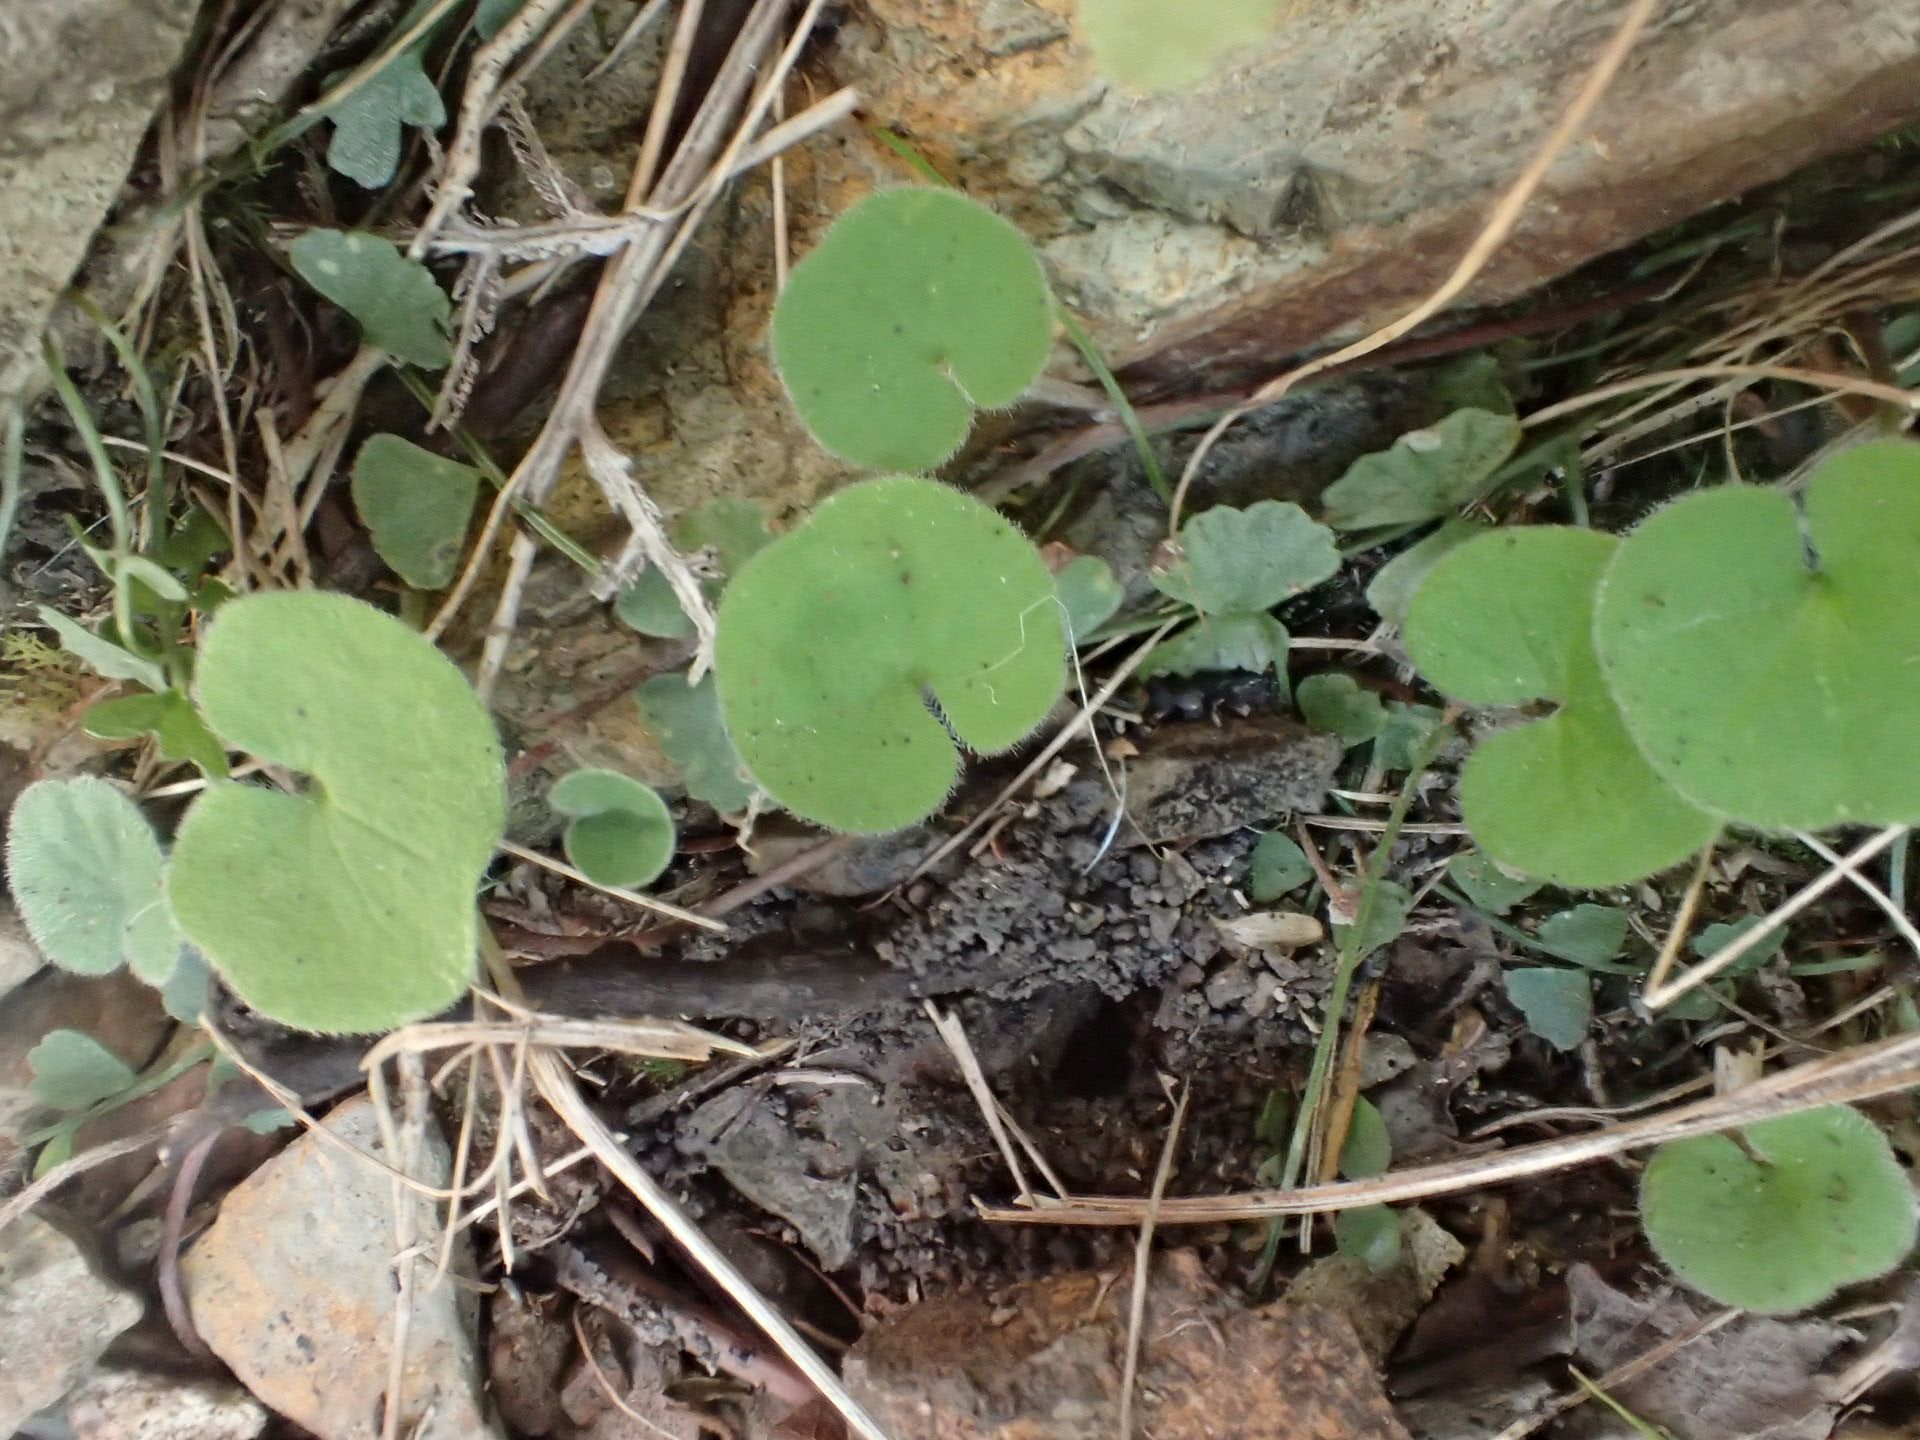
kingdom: Plantae
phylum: Tracheophyta
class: Magnoliopsida
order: Solanales
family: Convolvulaceae
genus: Dichondra
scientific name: Dichondra repens
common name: Kidneyweed
